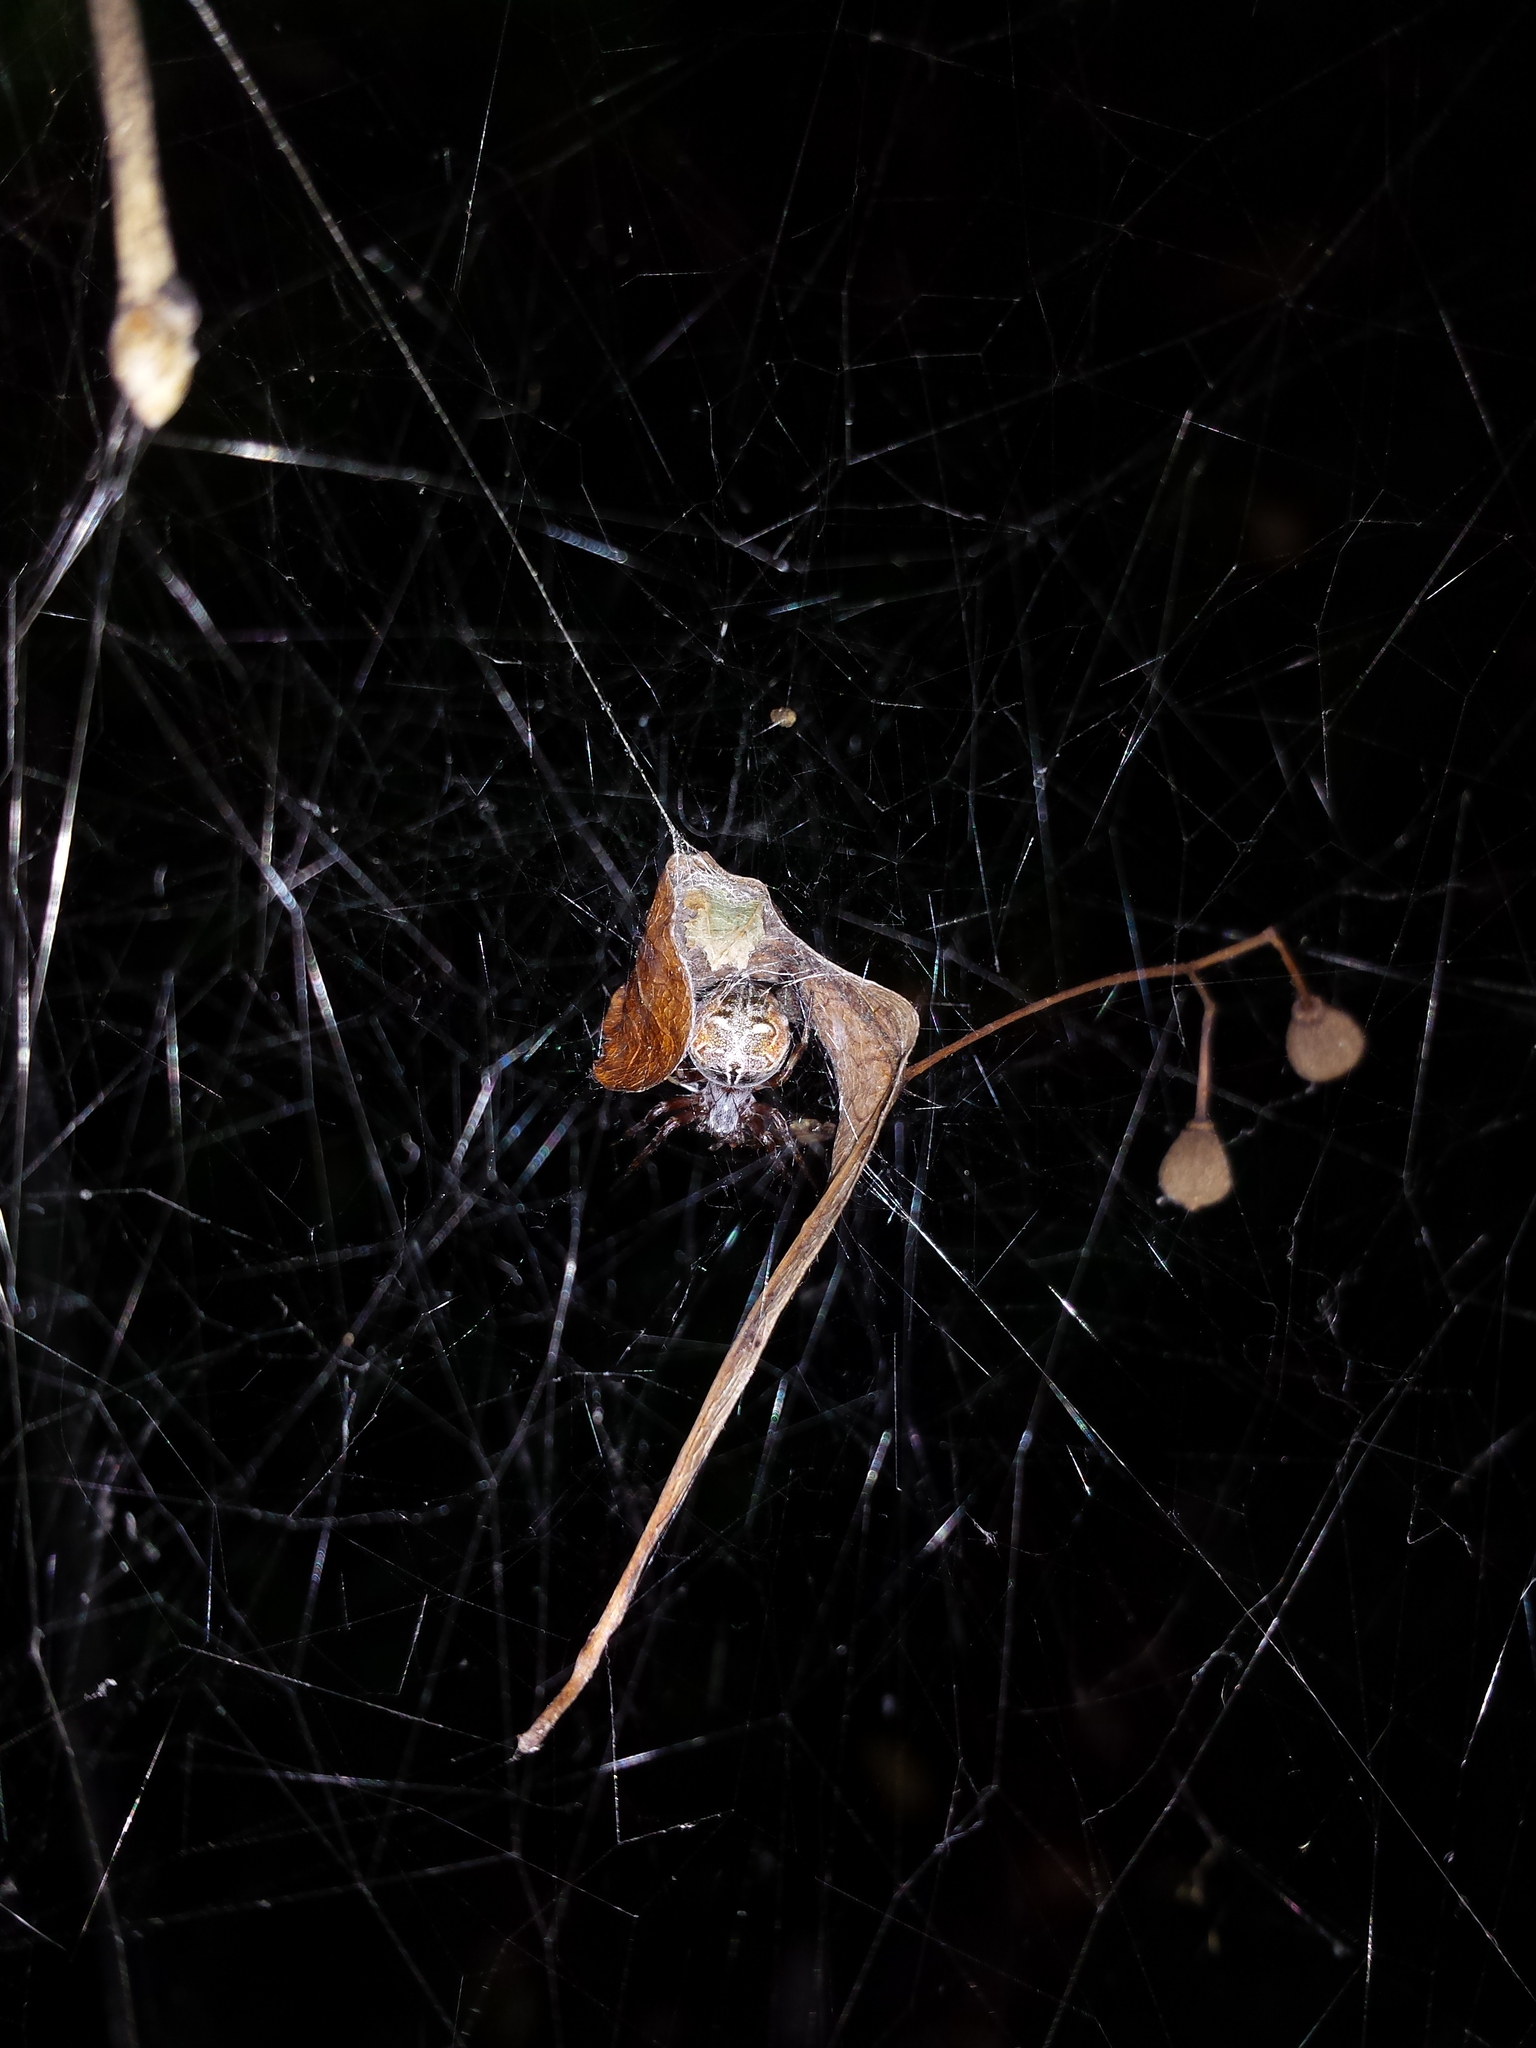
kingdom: Animalia
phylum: Arthropoda
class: Arachnida
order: Araneae
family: Araneidae
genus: Metepeira
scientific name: Metepeira labyrinthea
